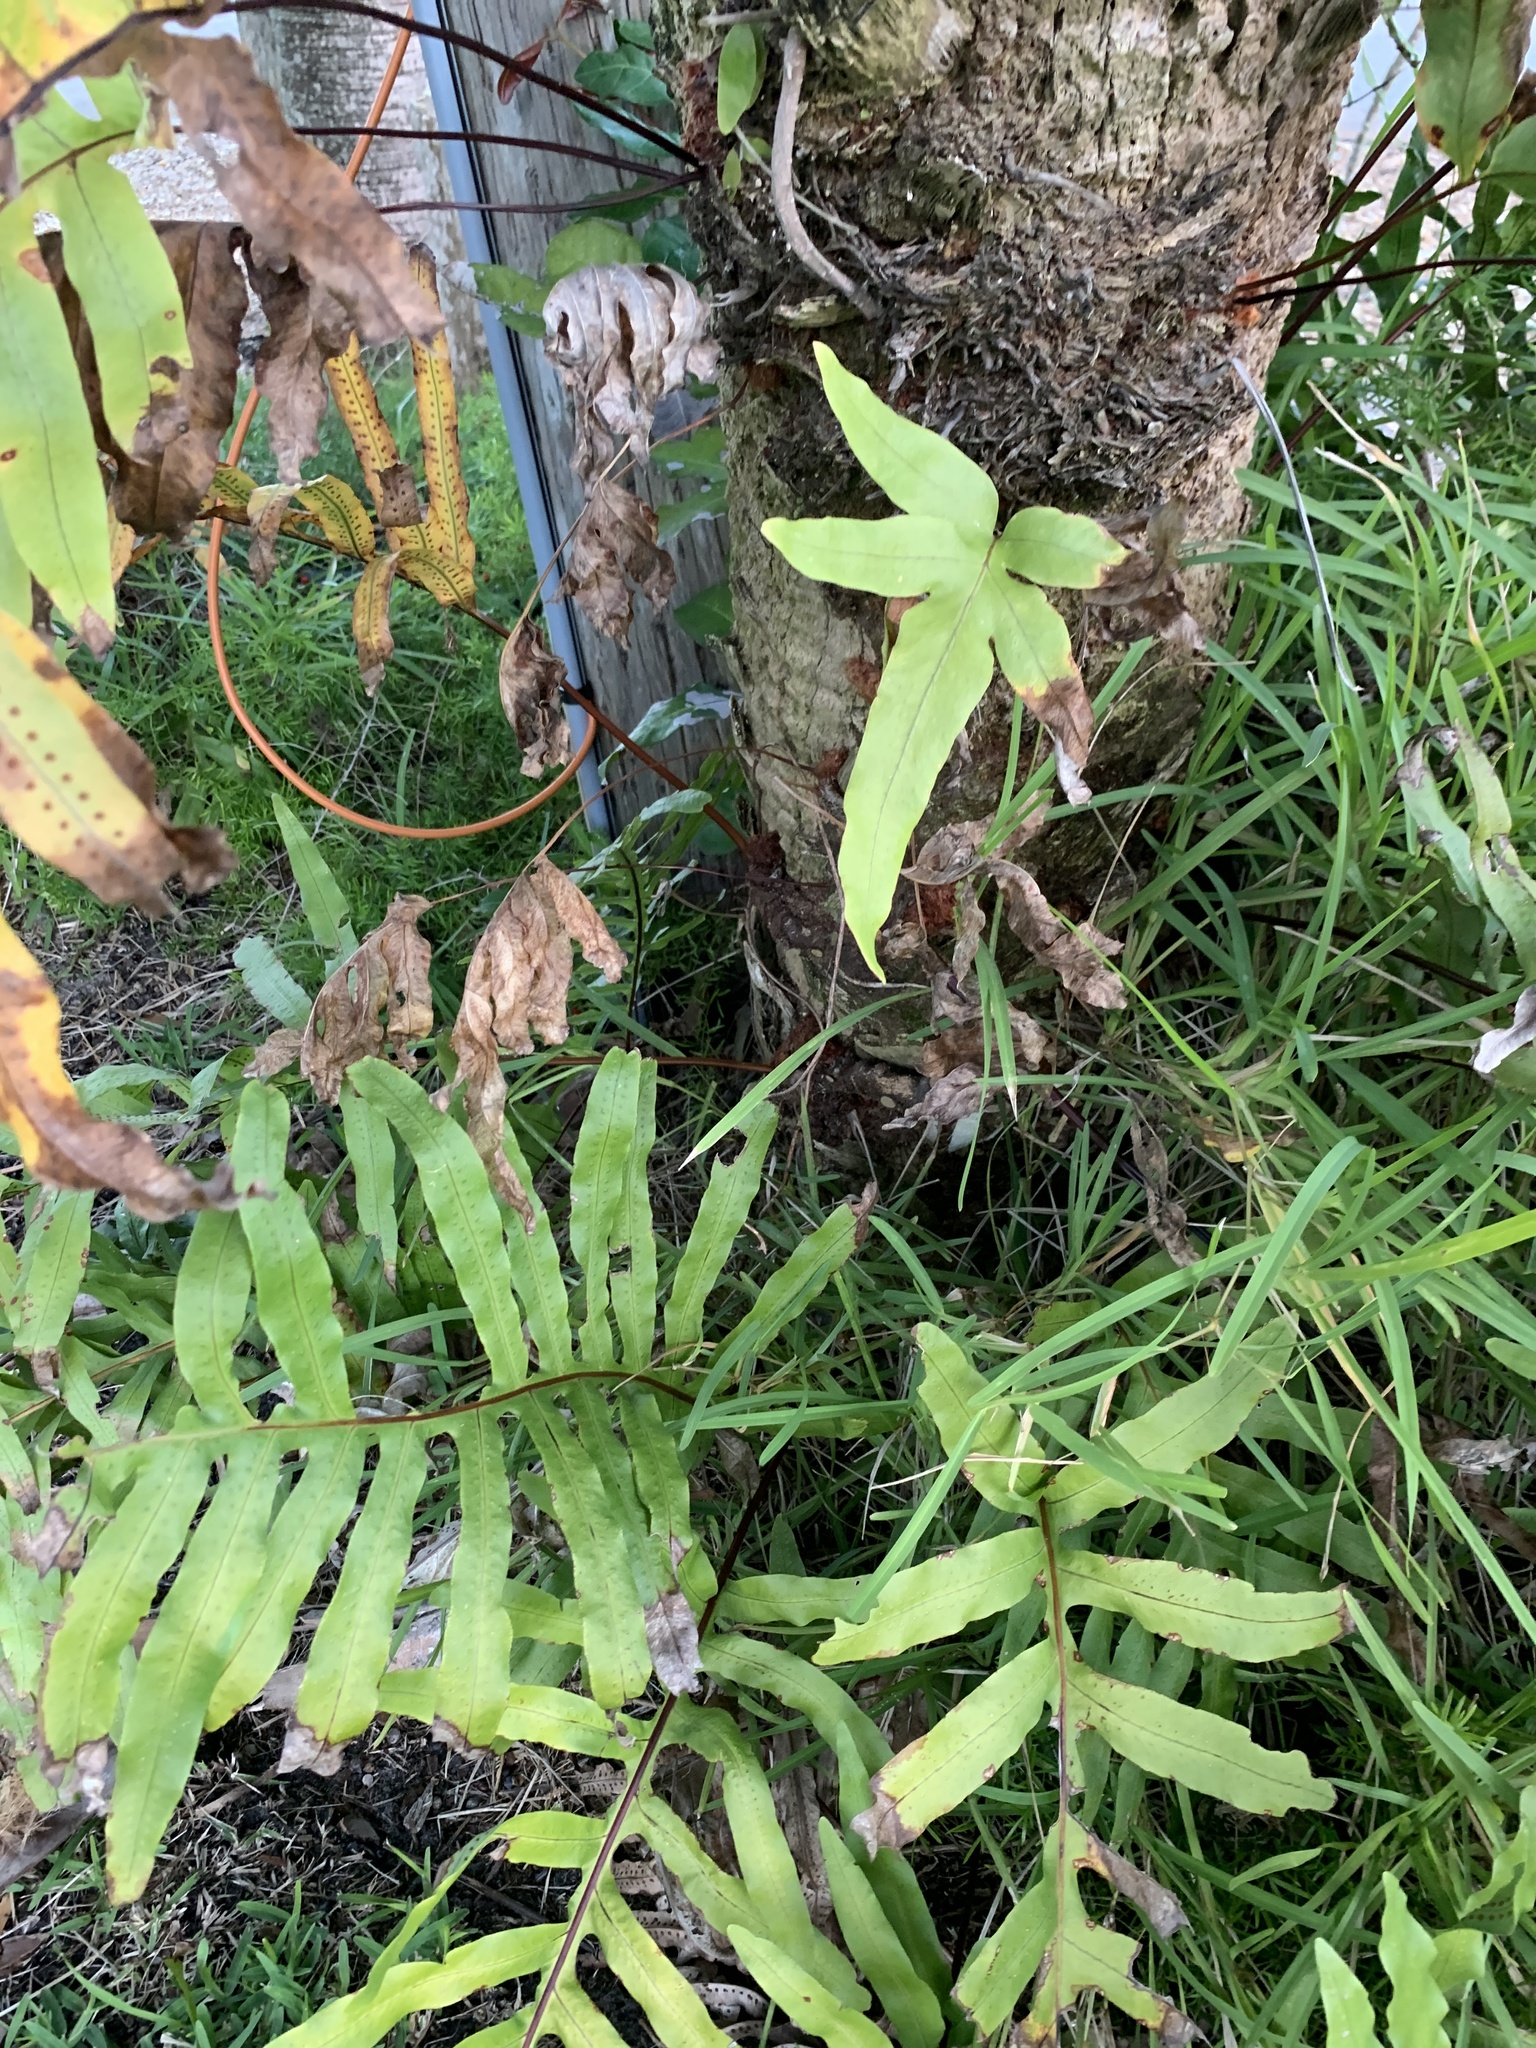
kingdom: Plantae
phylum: Tracheophyta
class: Polypodiopsida
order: Polypodiales
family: Polypodiaceae
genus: Phlebodium
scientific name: Phlebodium aureum
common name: Gold-foot fern
